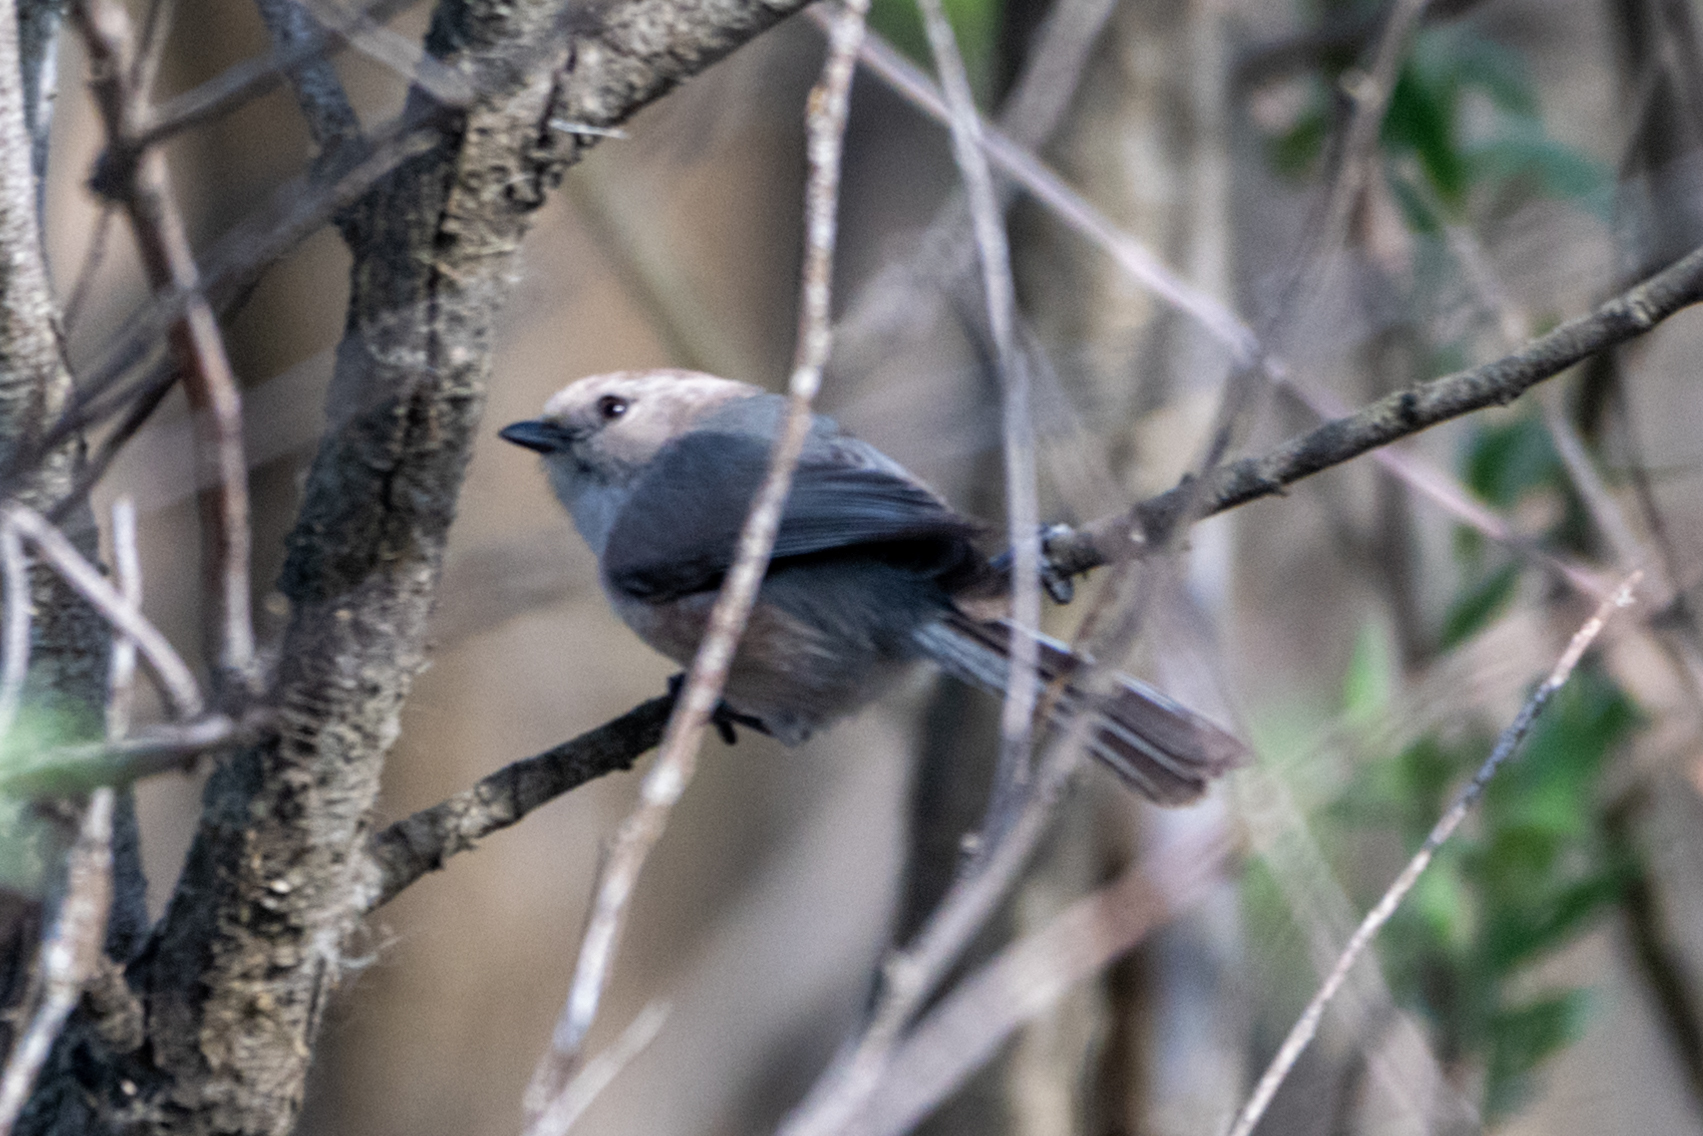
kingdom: Animalia
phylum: Chordata
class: Aves
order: Passeriformes
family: Aegithalidae
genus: Psaltriparus
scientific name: Psaltriparus minimus
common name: American bushtit
